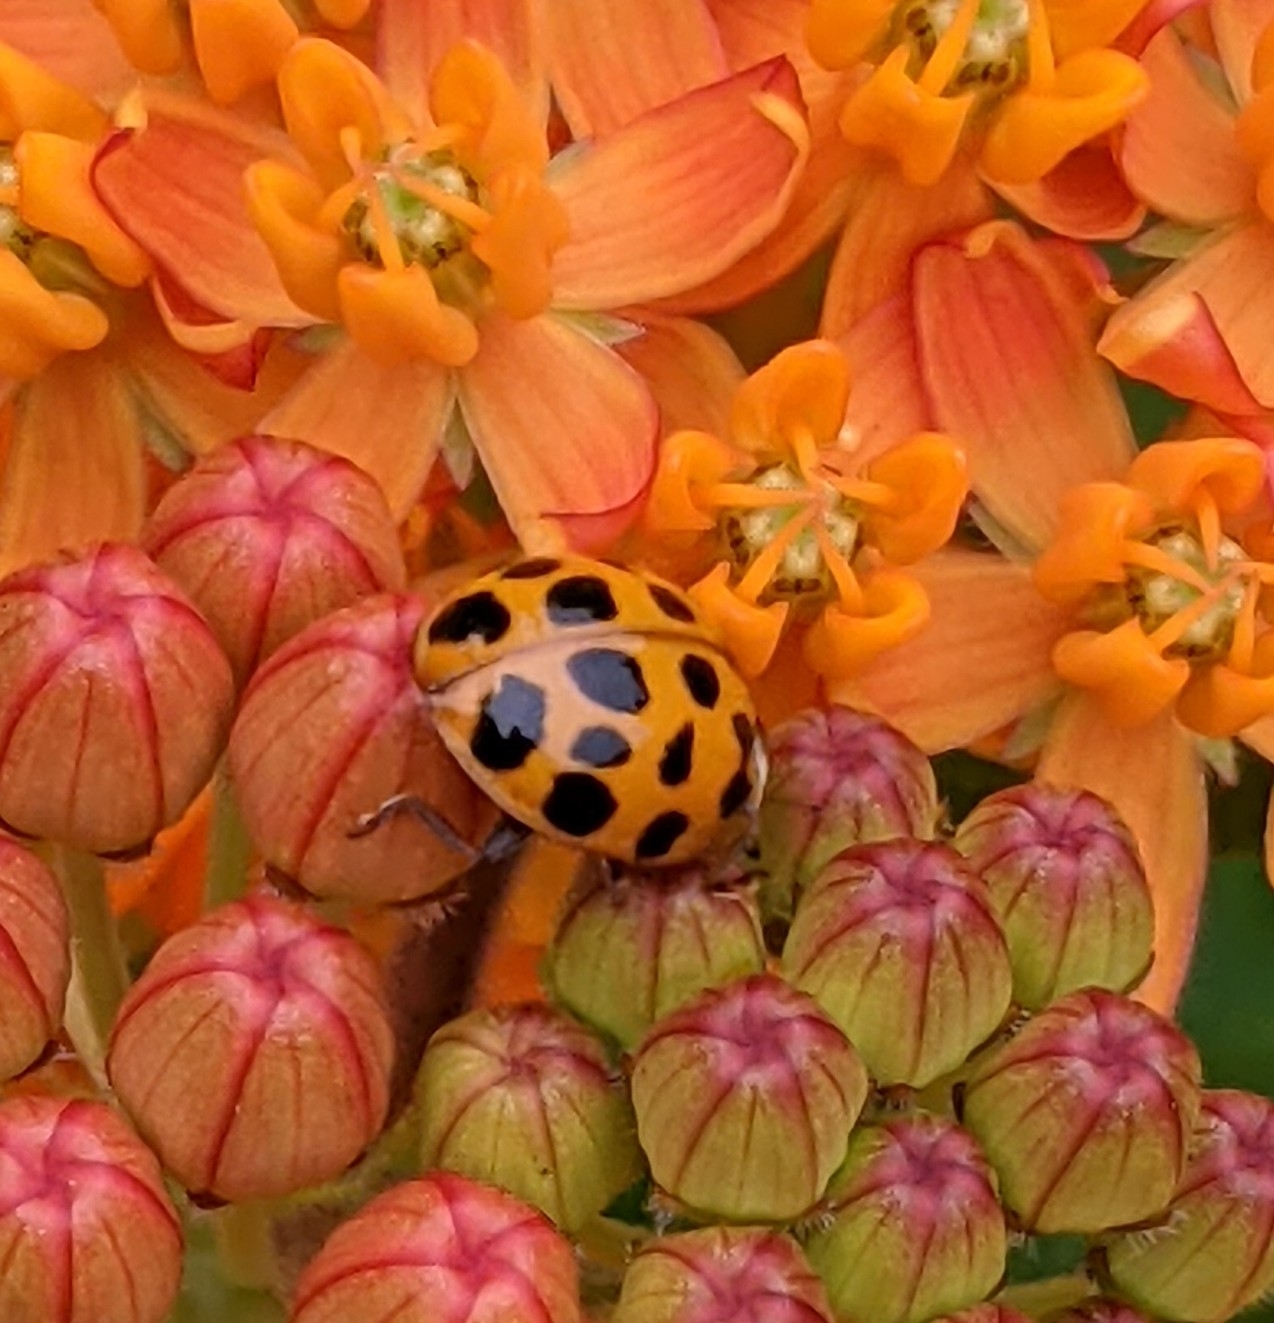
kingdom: Animalia
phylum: Arthropoda
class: Insecta
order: Coleoptera
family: Coccinellidae
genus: Harmonia
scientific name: Harmonia axyridis
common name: Harlequin ladybird
